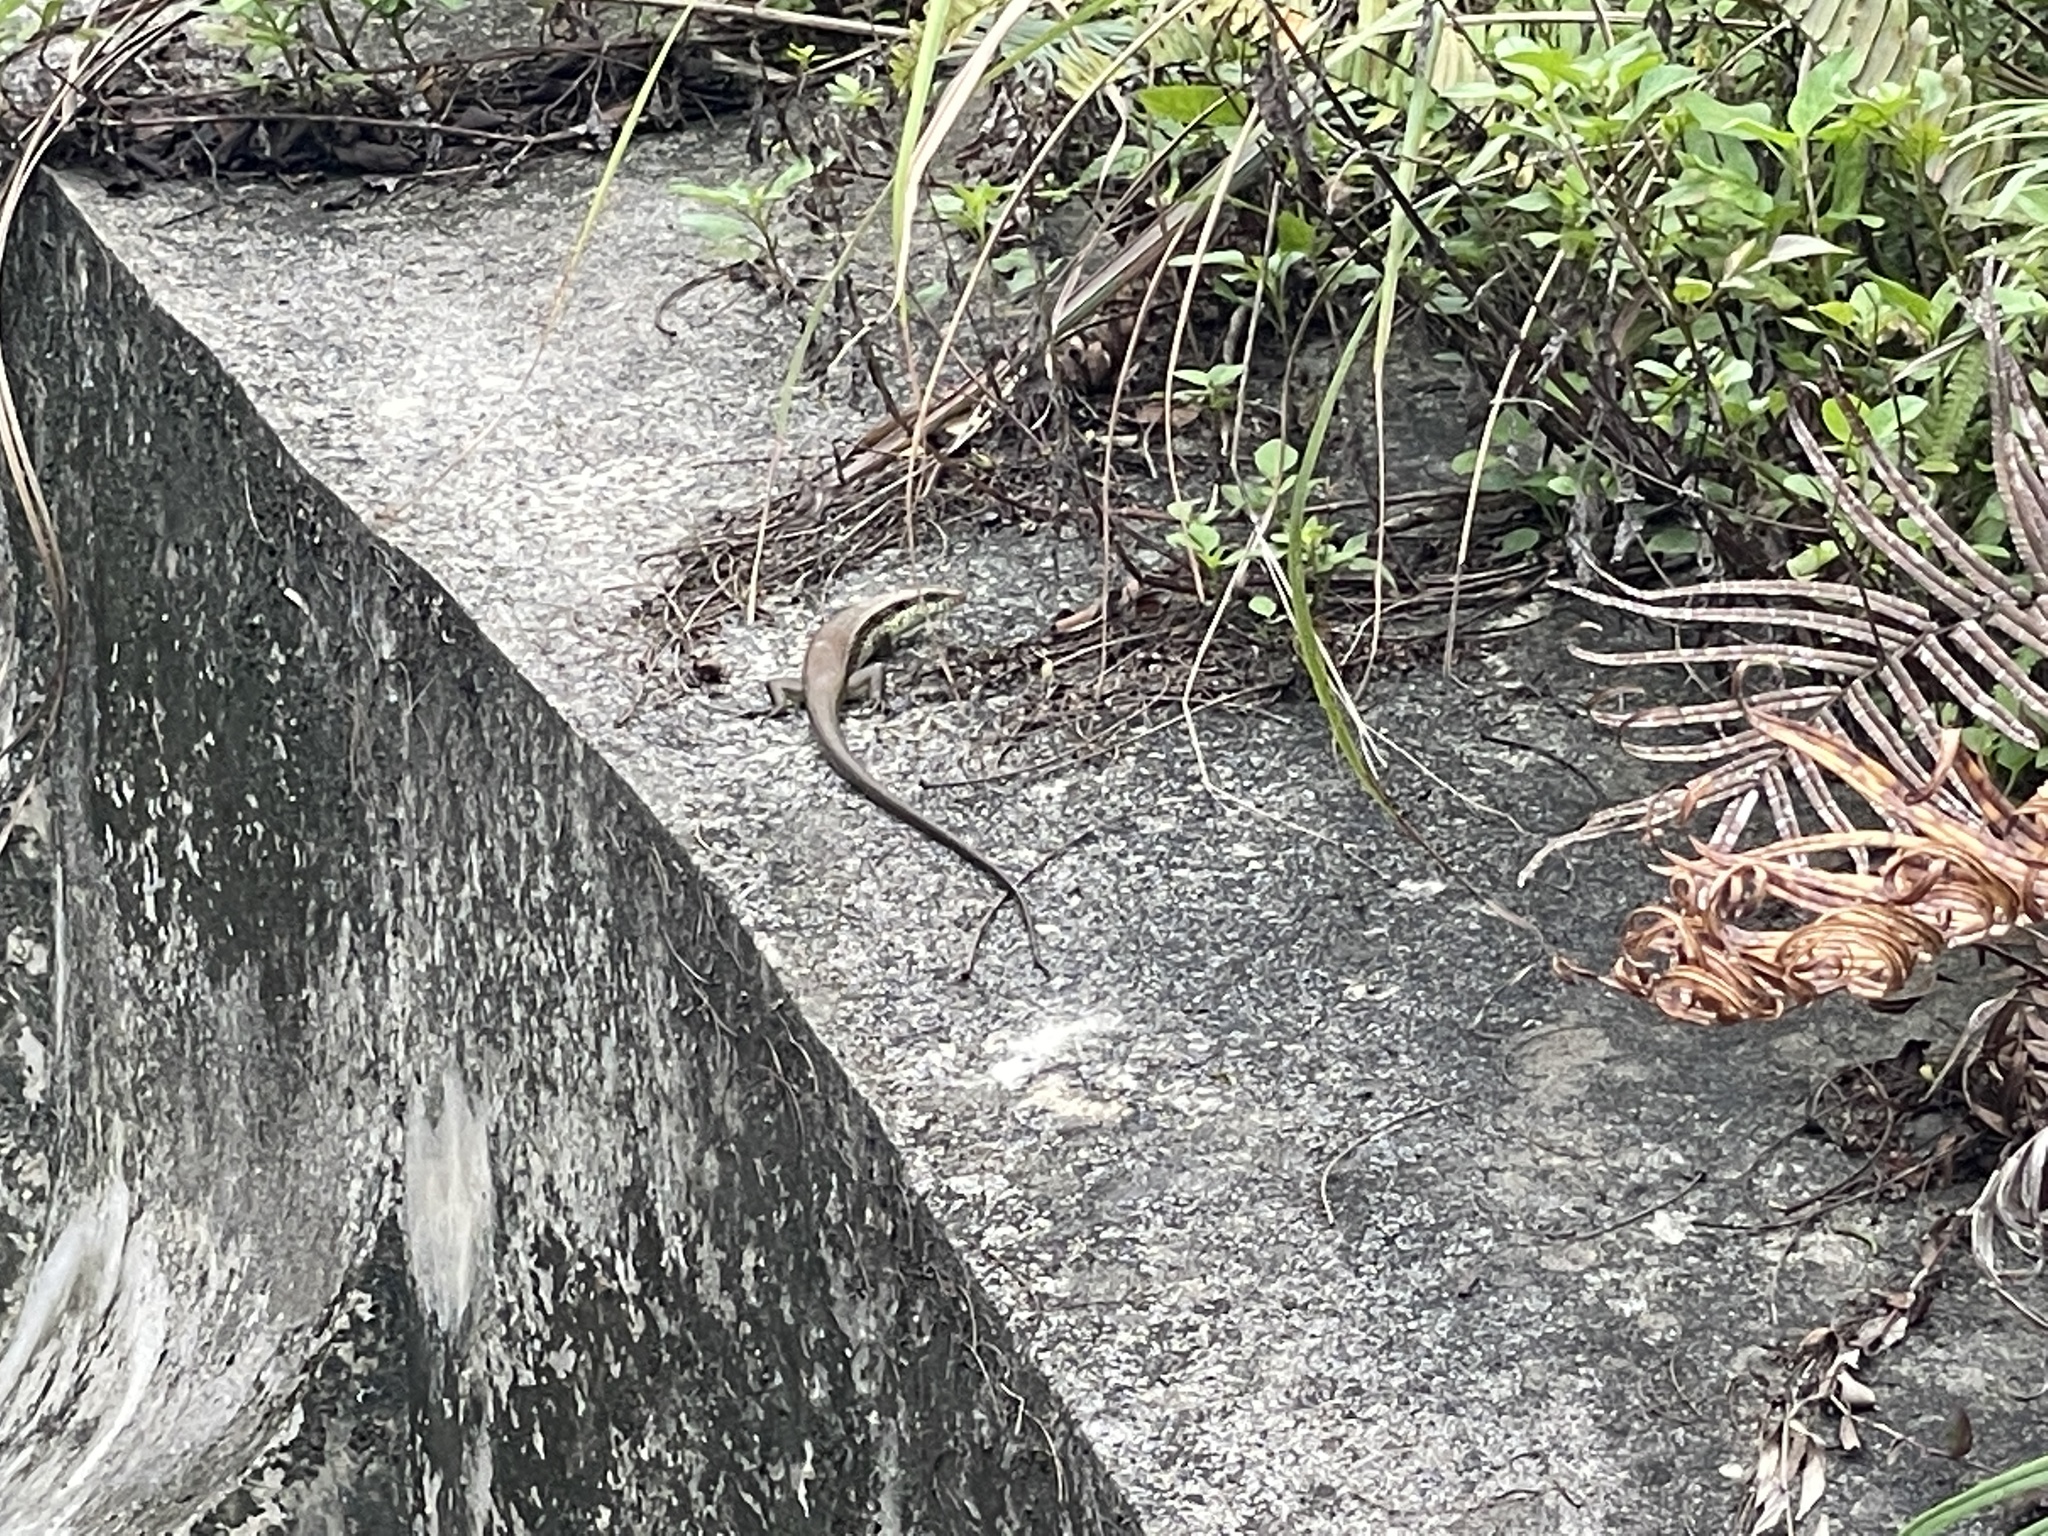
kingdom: Animalia
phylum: Chordata
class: Squamata
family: Scincidae
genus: Eutropis
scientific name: Eutropis longicaudata
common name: Long-tailed sun skink
